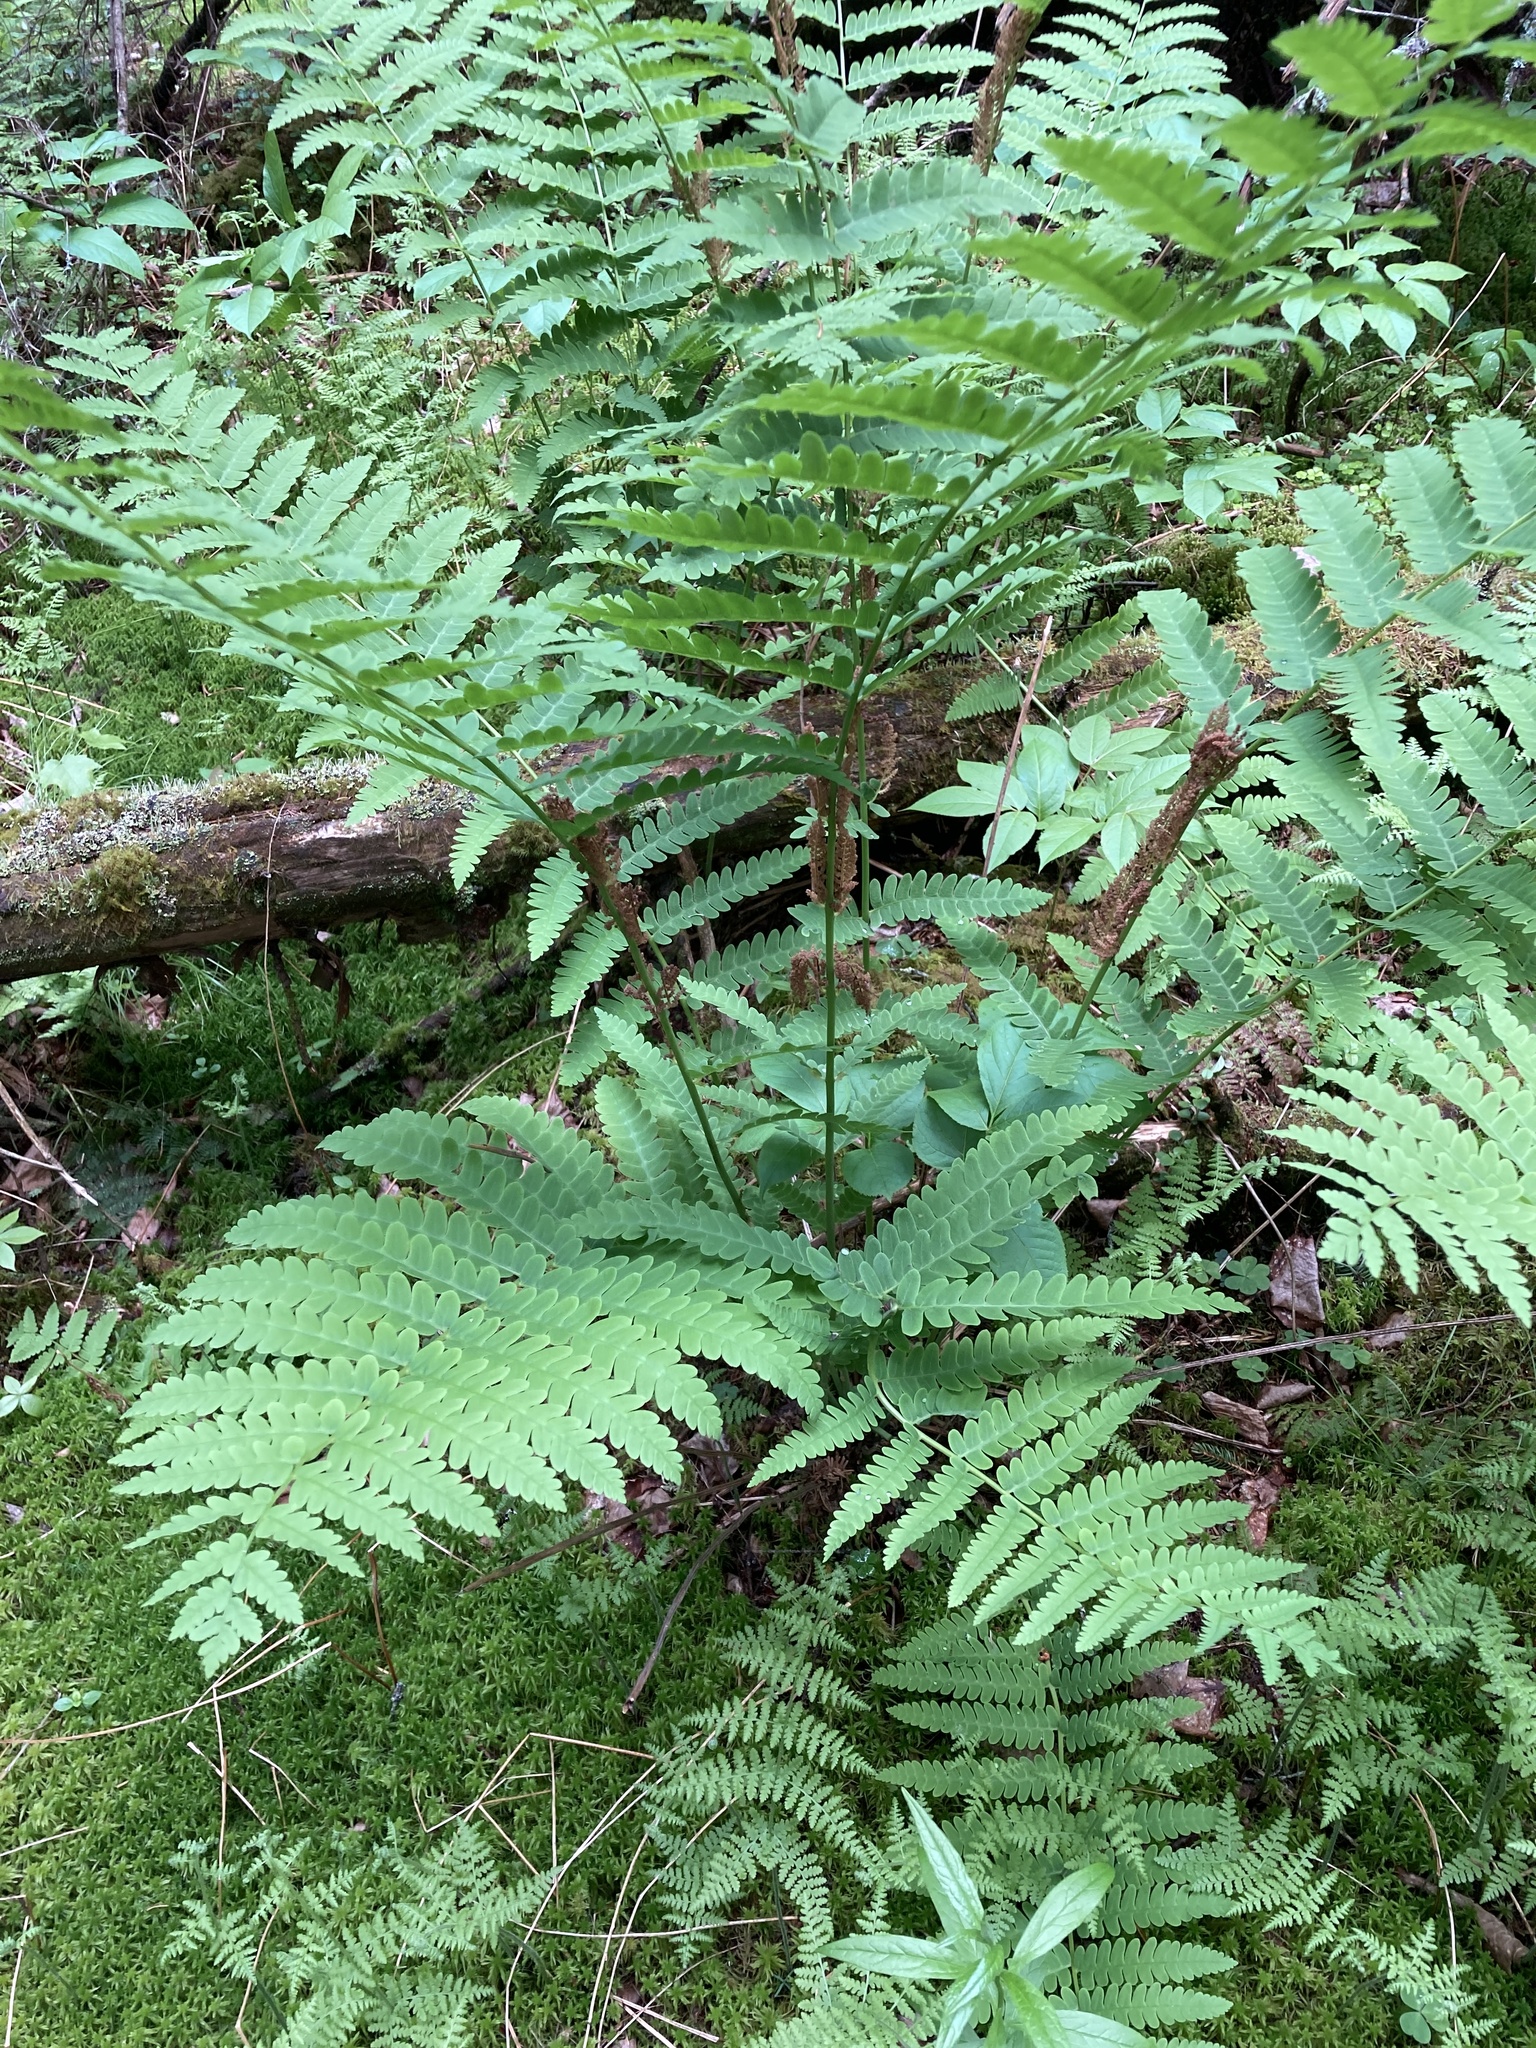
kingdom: Plantae
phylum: Tracheophyta
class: Polypodiopsida
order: Osmundales
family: Osmundaceae
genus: Claytosmunda
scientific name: Claytosmunda claytoniana
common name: Clayton's fern
